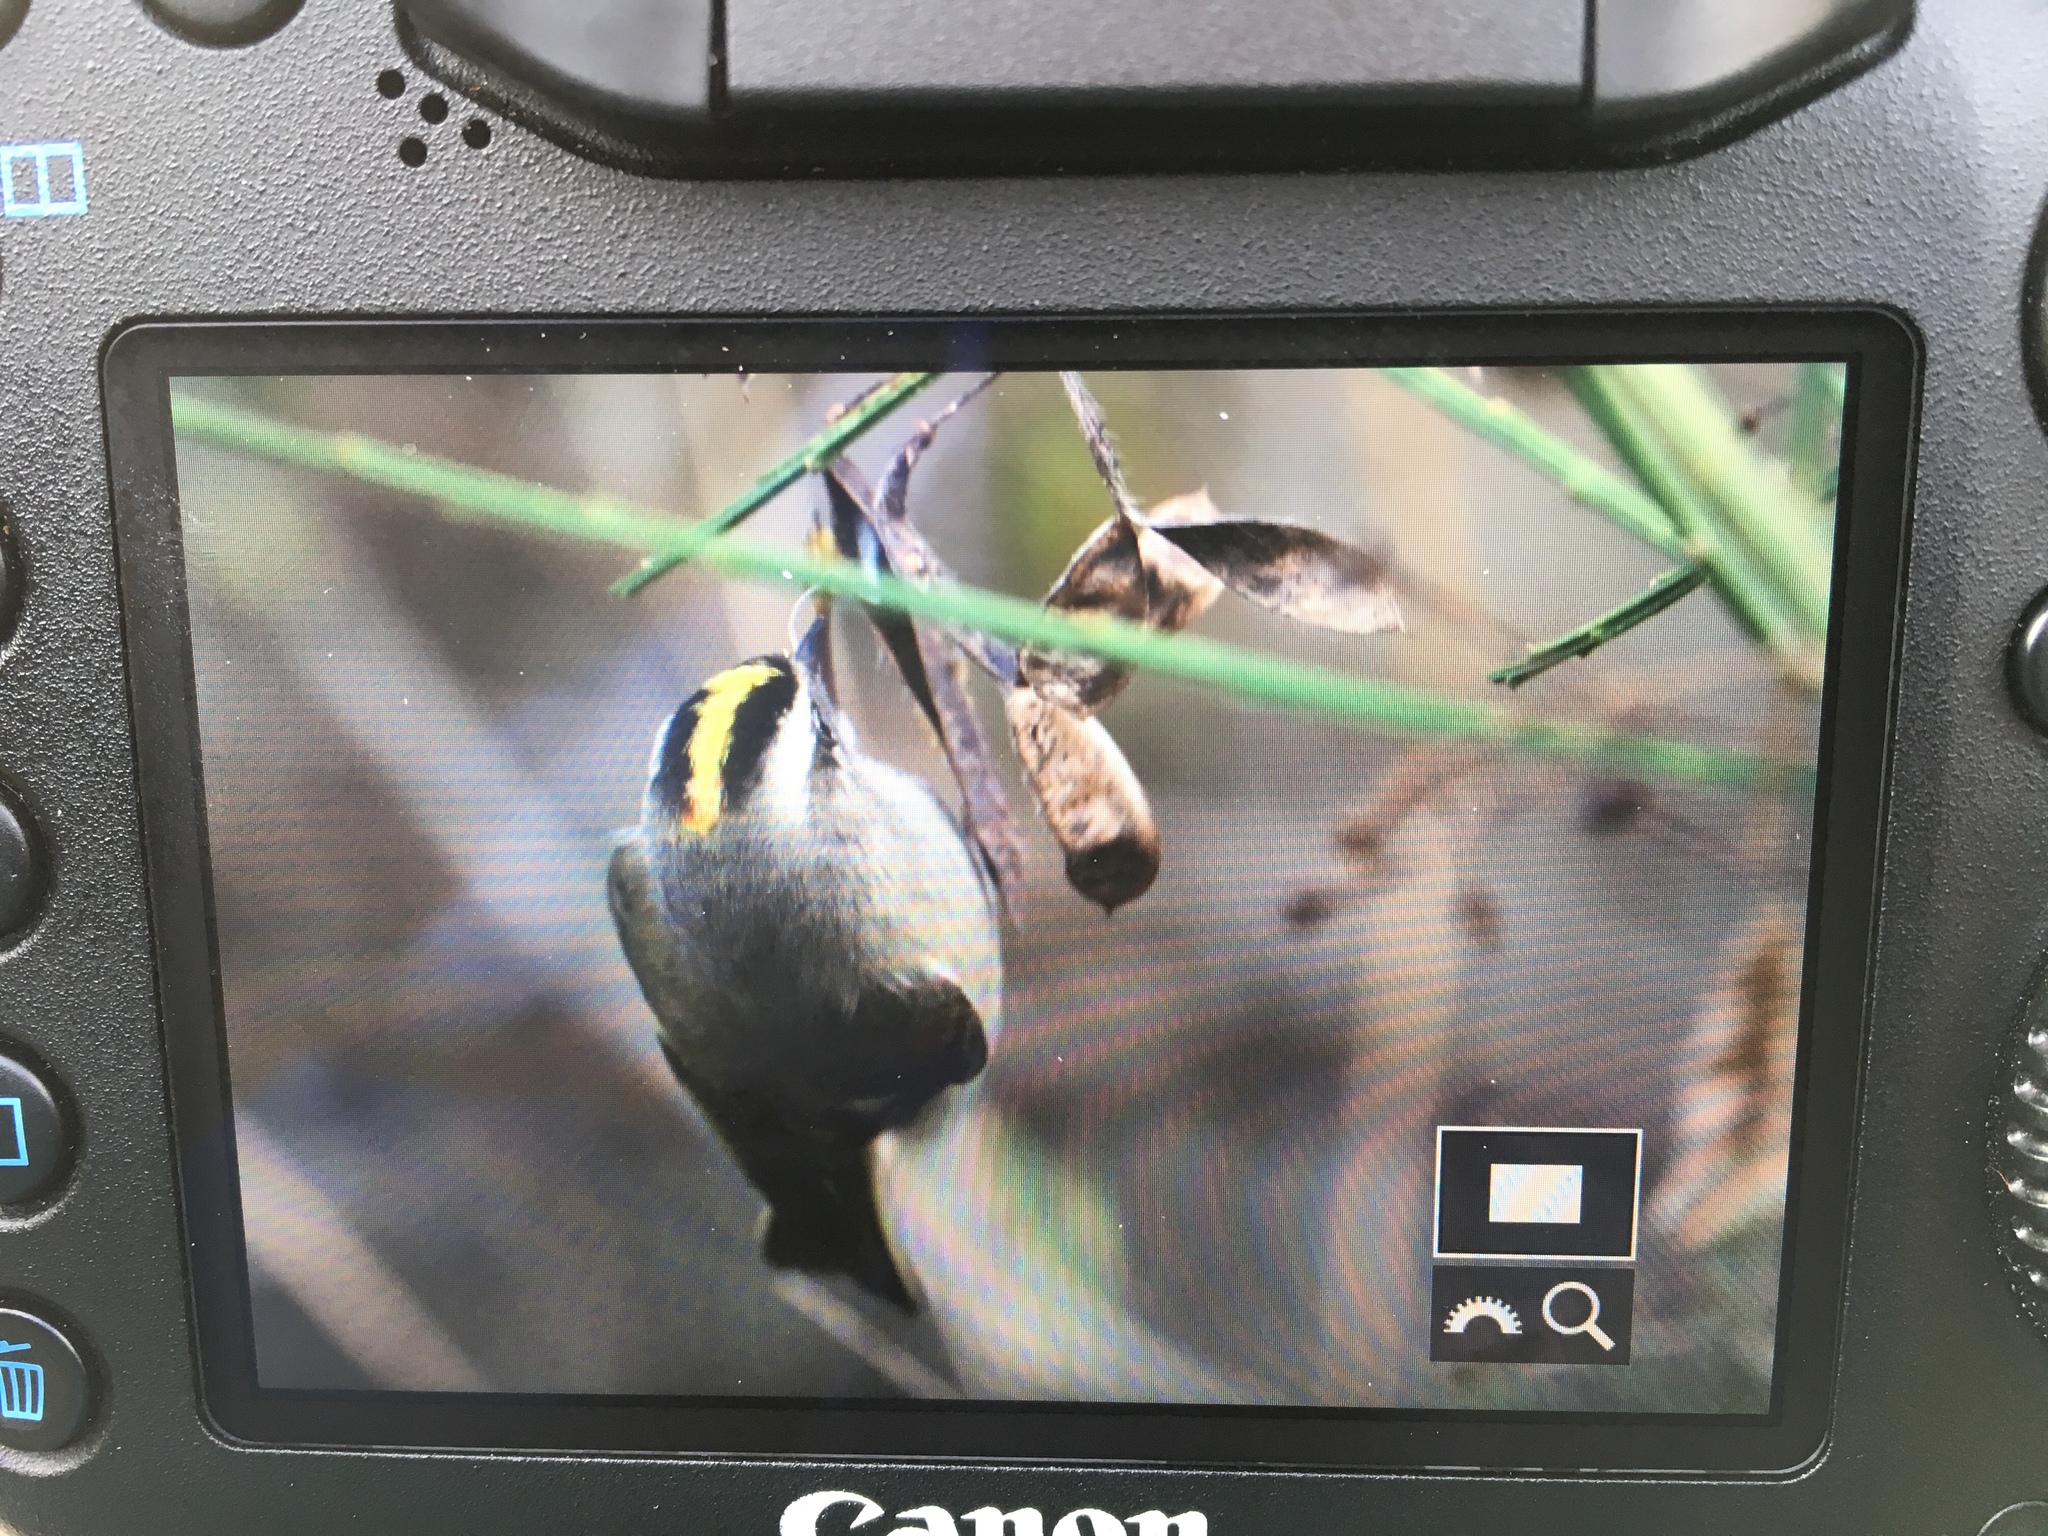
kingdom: Animalia
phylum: Chordata
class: Aves
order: Passeriformes
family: Regulidae
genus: Regulus
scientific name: Regulus satrapa
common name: Golden-crowned kinglet
